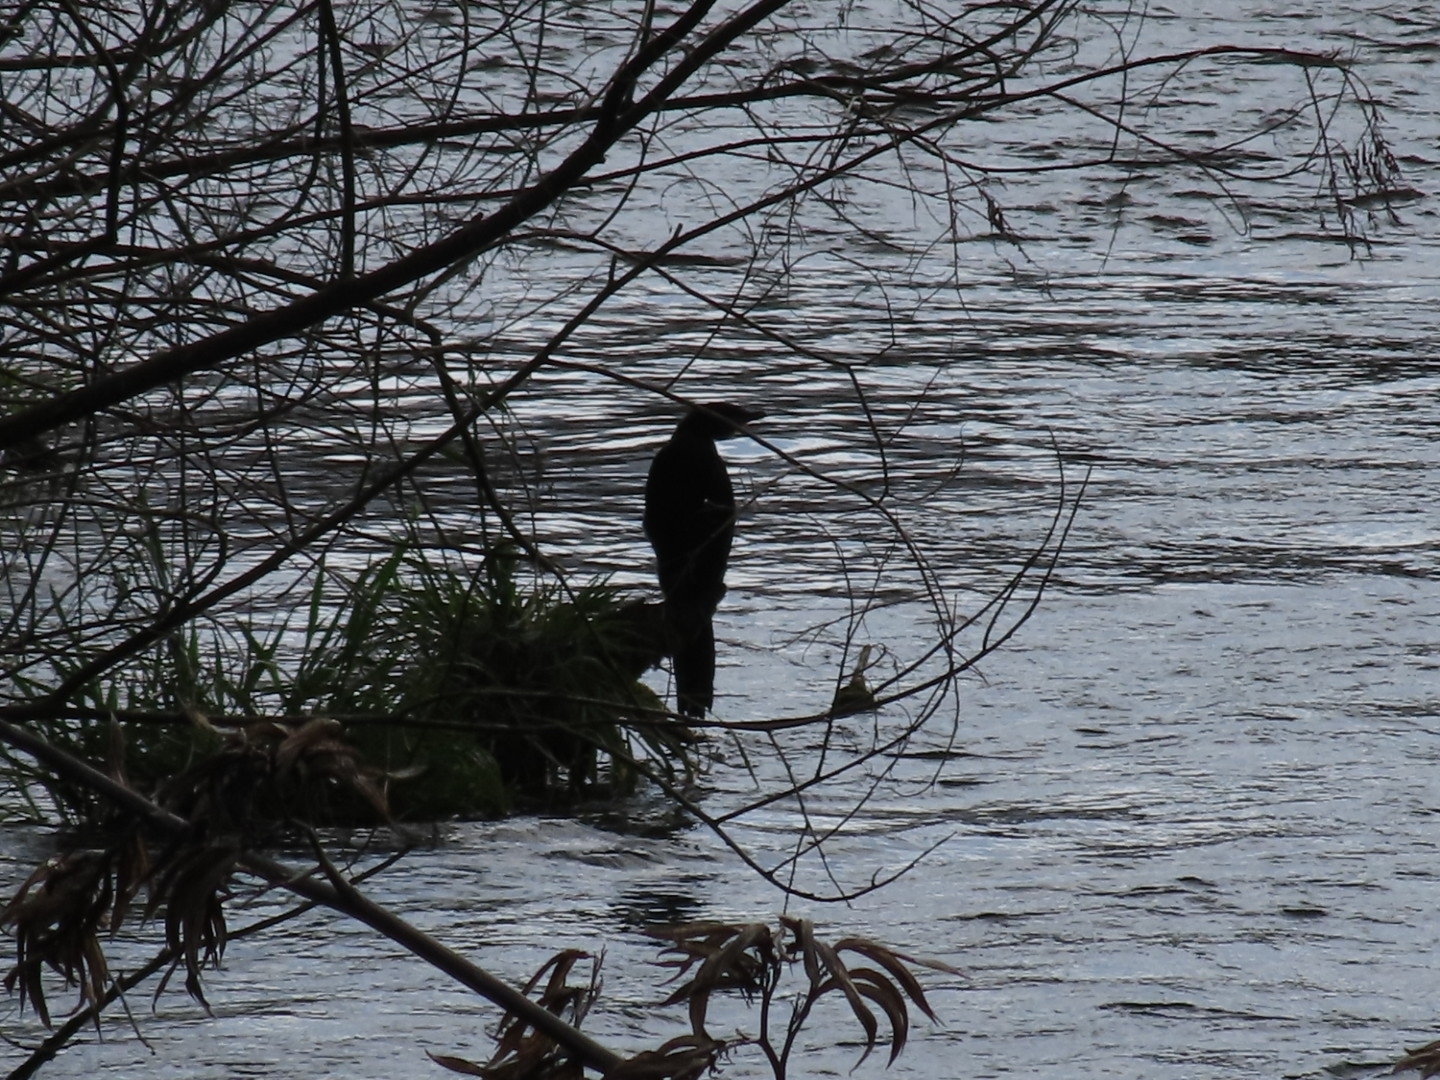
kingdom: Animalia
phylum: Chordata
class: Aves
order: Suliformes
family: Phalacrocoracidae
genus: Microcarbo
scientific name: Microcarbo melanoleucos
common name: Little pied cormorant
